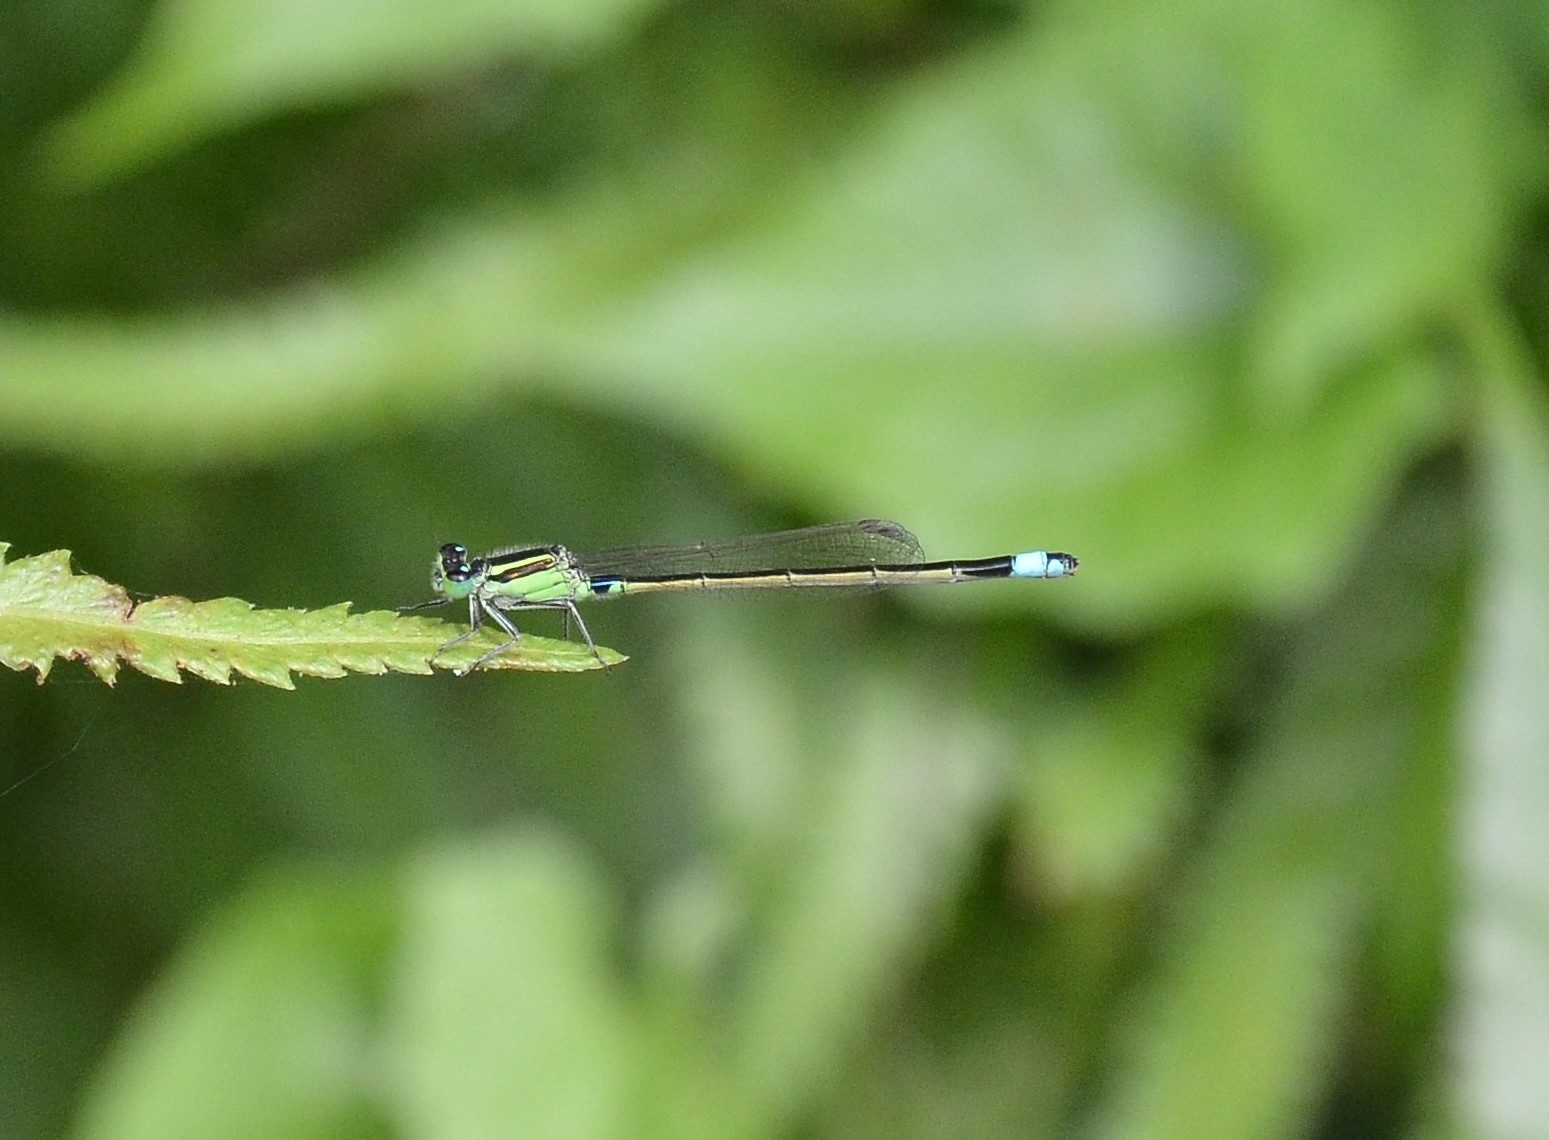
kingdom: Animalia
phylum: Arthropoda
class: Insecta
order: Odonata
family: Coenagrionidae
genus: Ischnura
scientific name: Ischnura senegalensis
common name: Tropical bluetail
